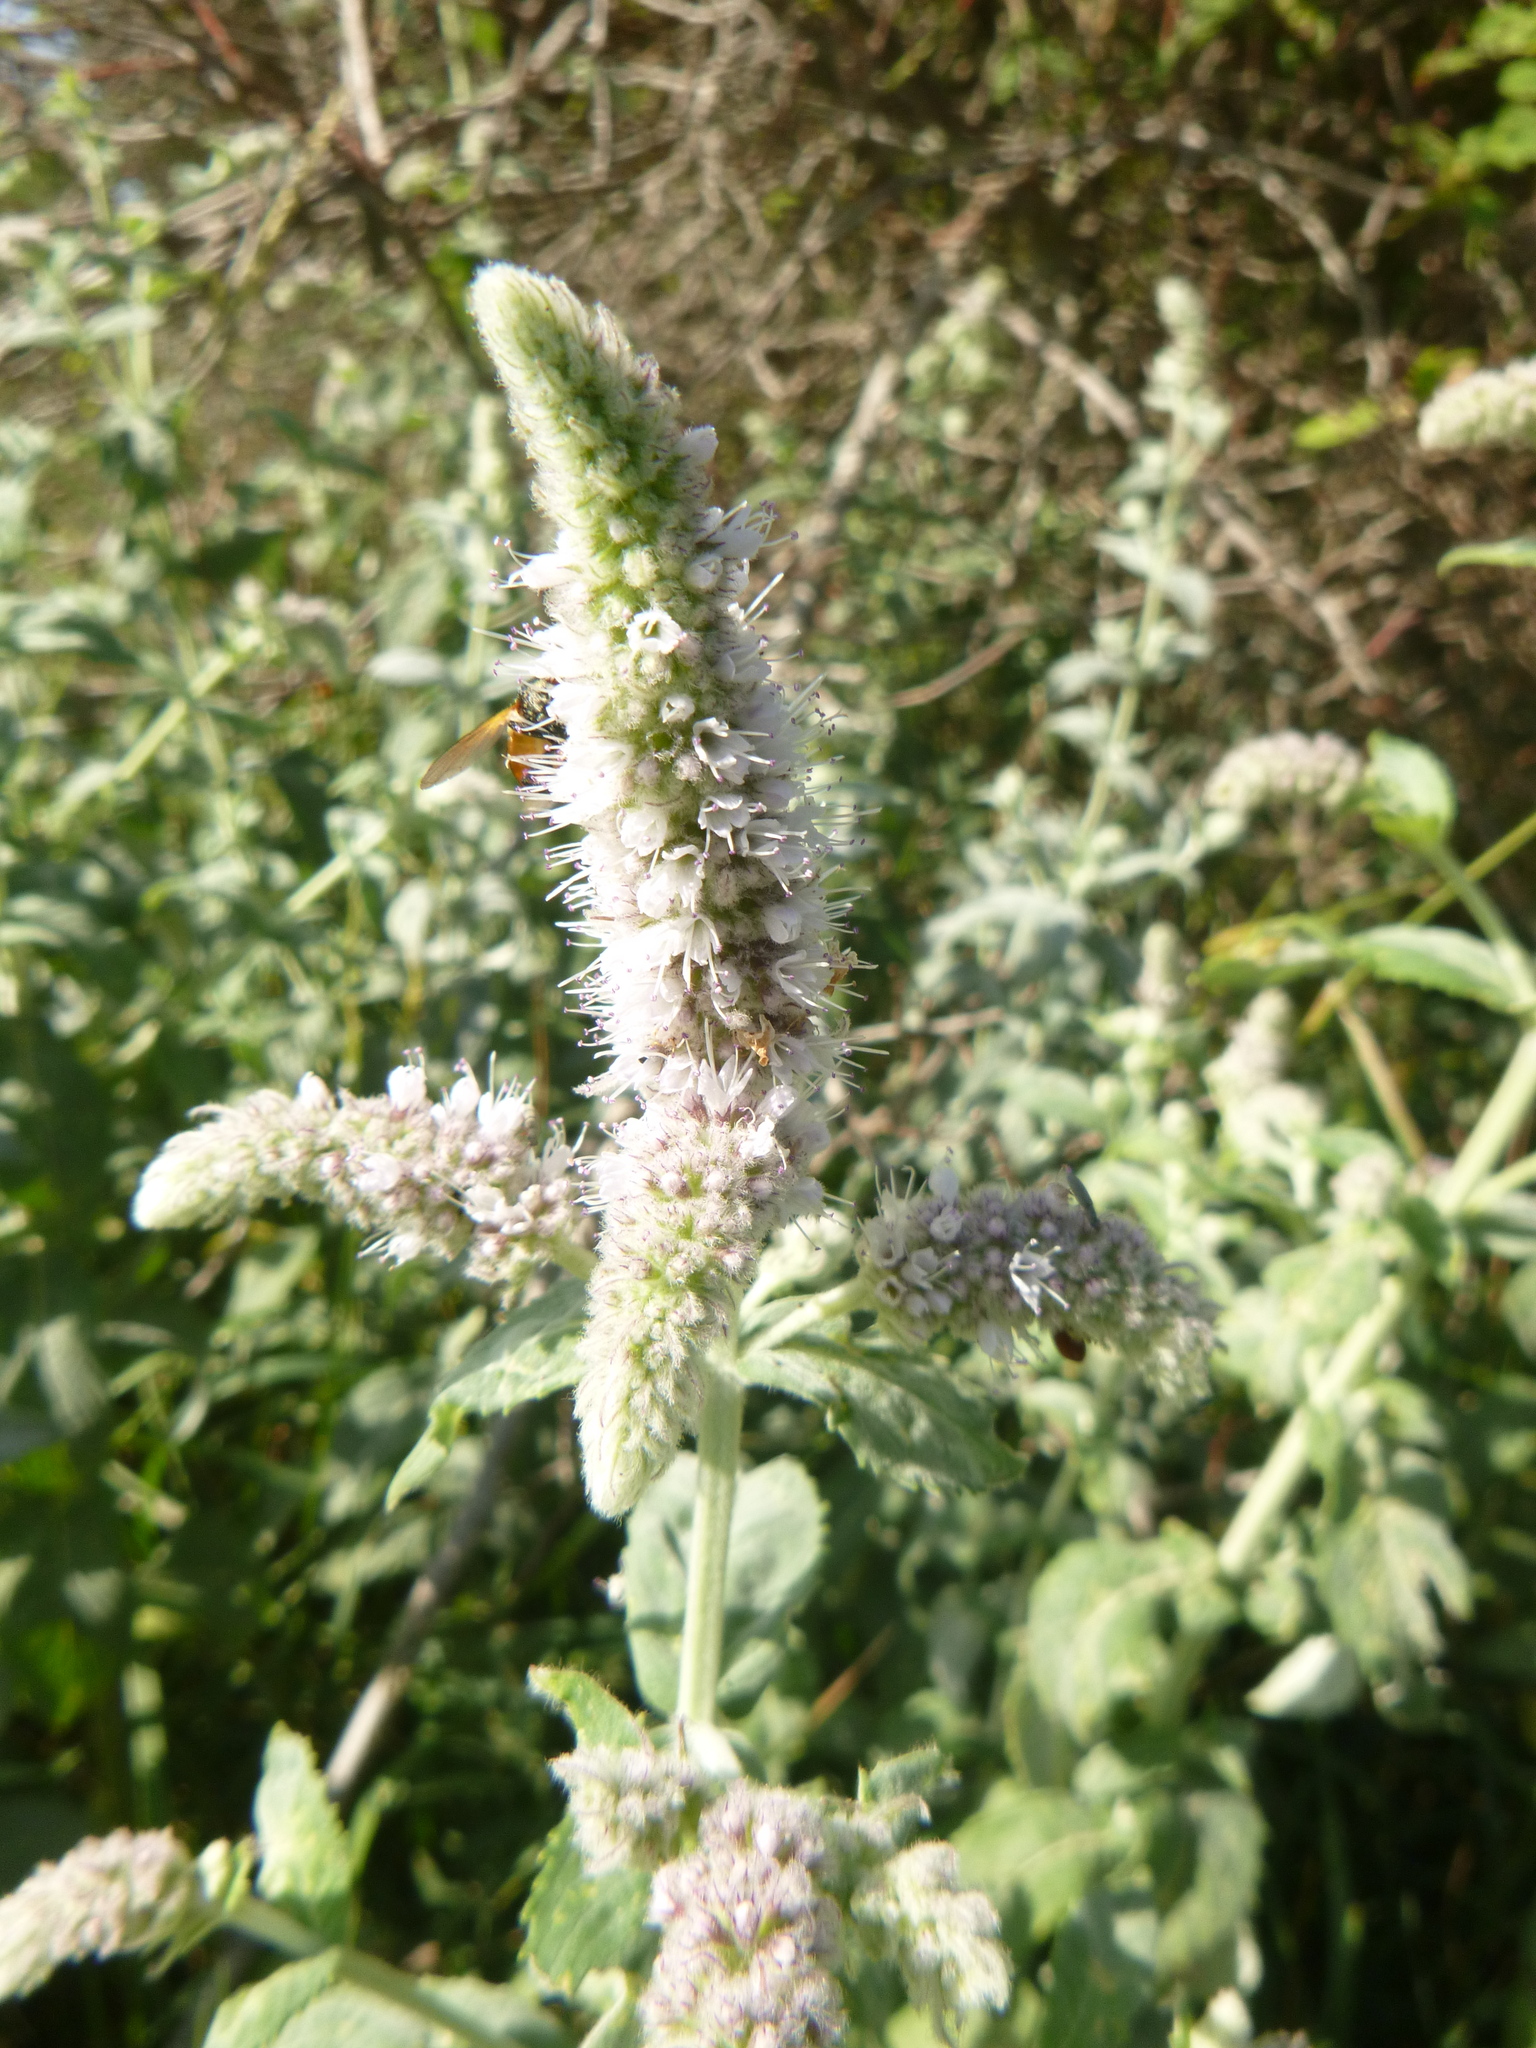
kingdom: Plantae
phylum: Tracheophyta
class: Magnoliopsida
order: Lamiales
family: Lamiaceae
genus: Mentha
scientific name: Mentha longifolia
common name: Horse mint
